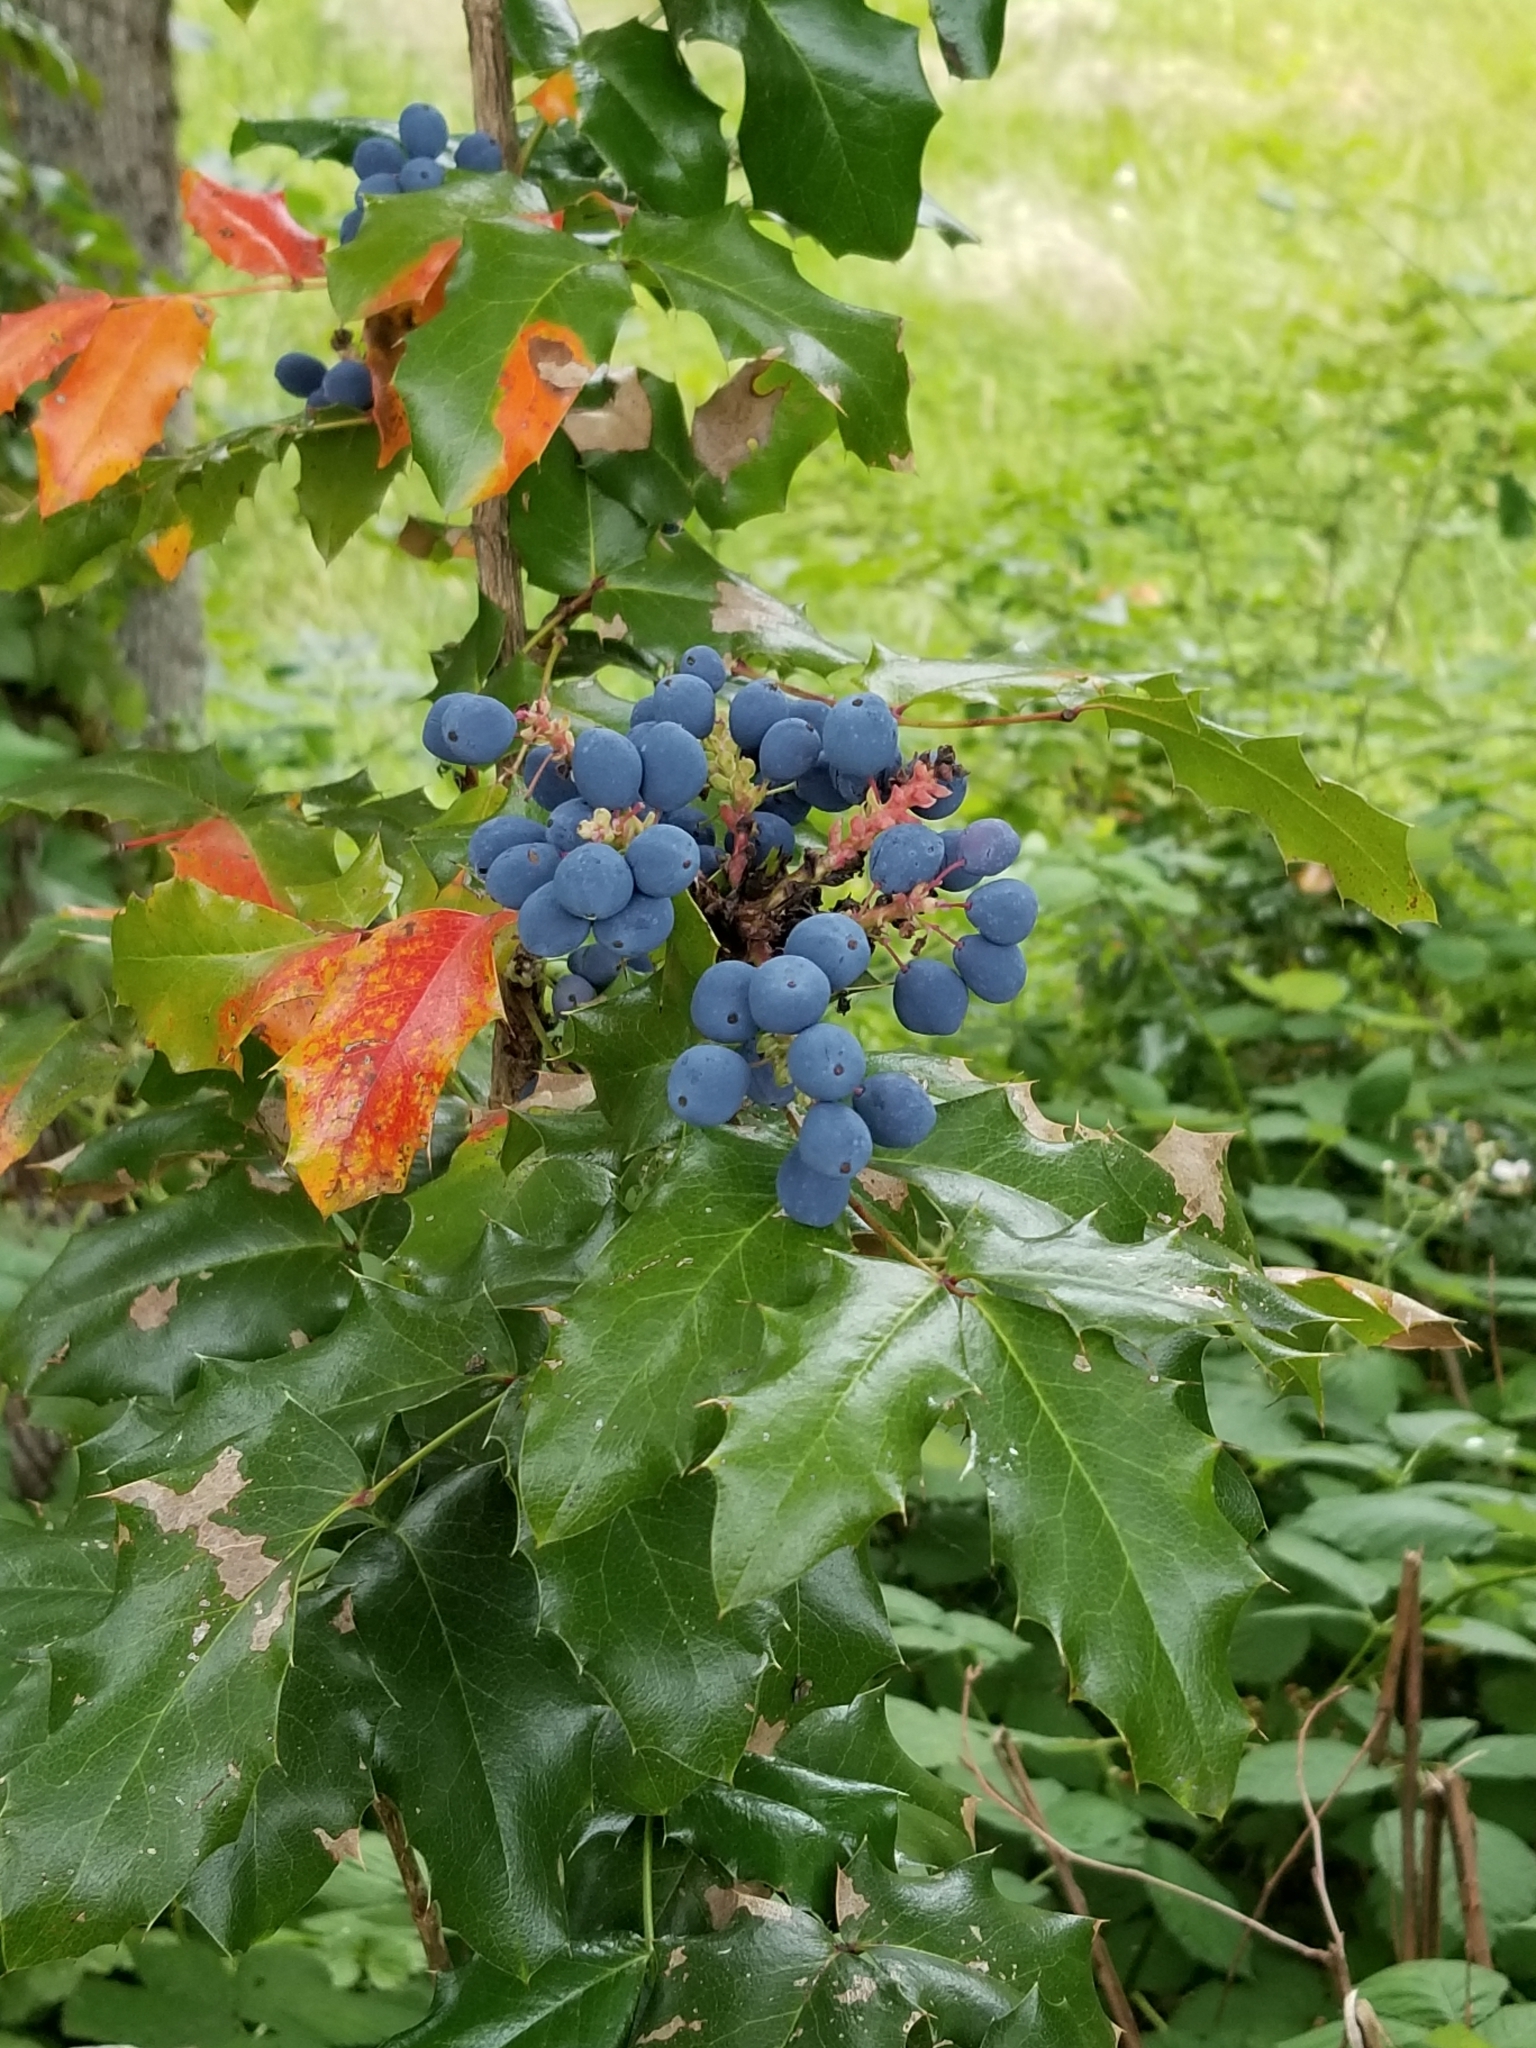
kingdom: Plantae
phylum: Tracheophyta
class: Magnoliopsida
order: Ranunculales
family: Berberidaceae
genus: Mahonia
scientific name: Mahonia aquifolium
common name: Oregon-grape
